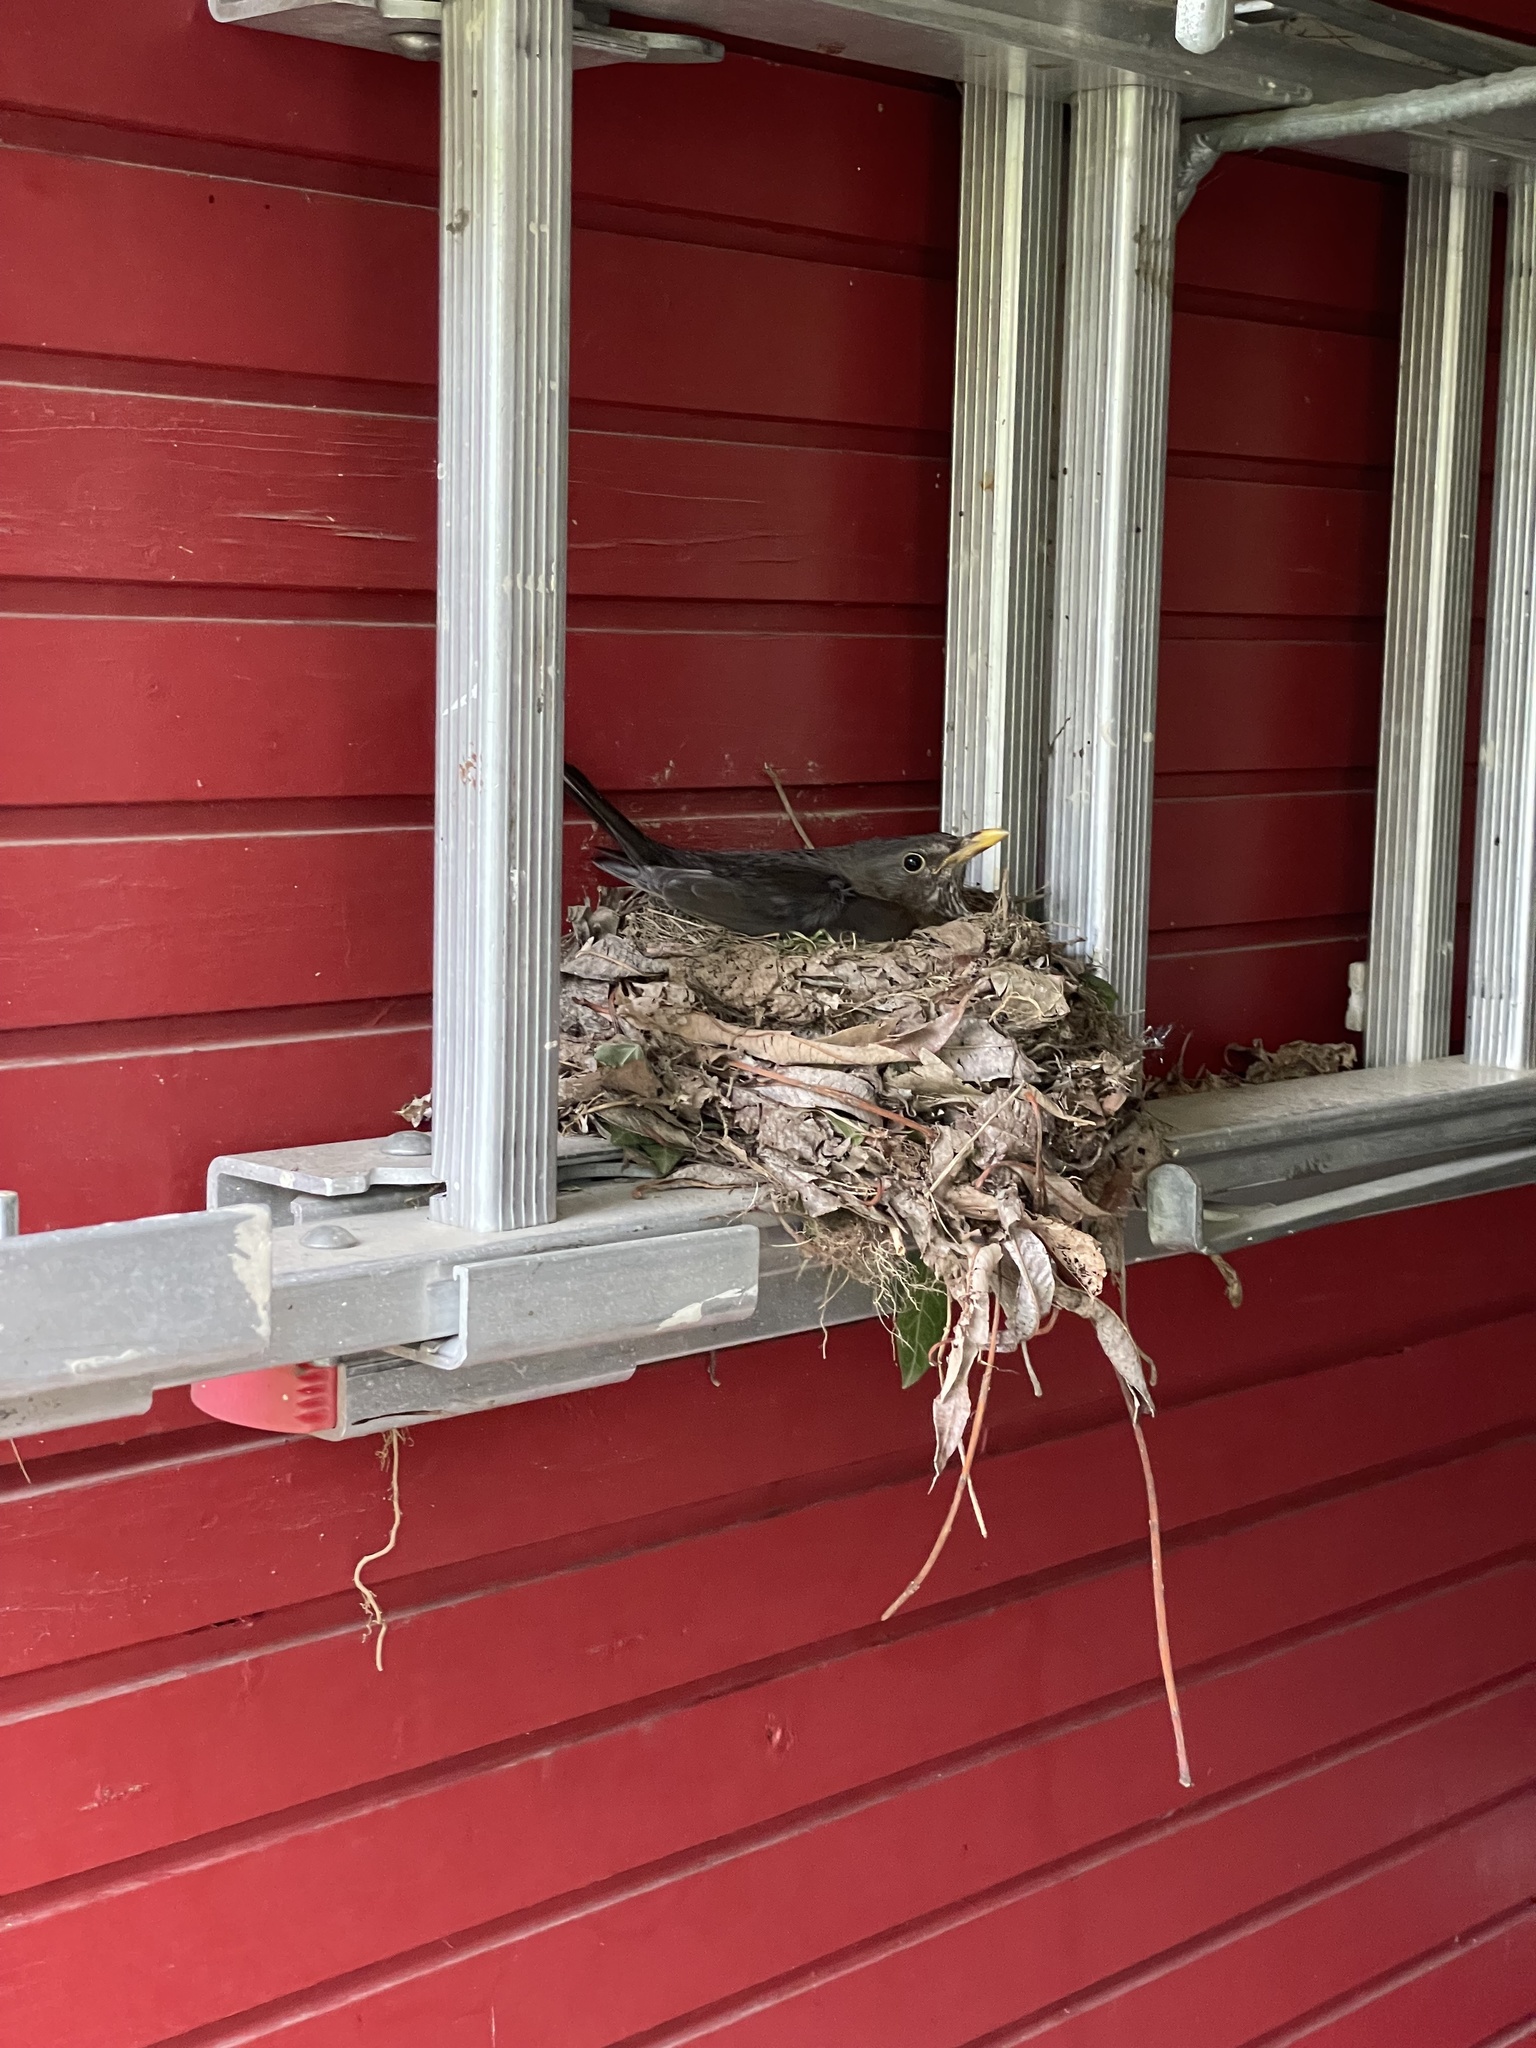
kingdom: Animalia
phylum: Chordata
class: Aves
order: Passeriformes
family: Turdidae
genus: Turdus
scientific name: Turdus merula
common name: Common blackbird
